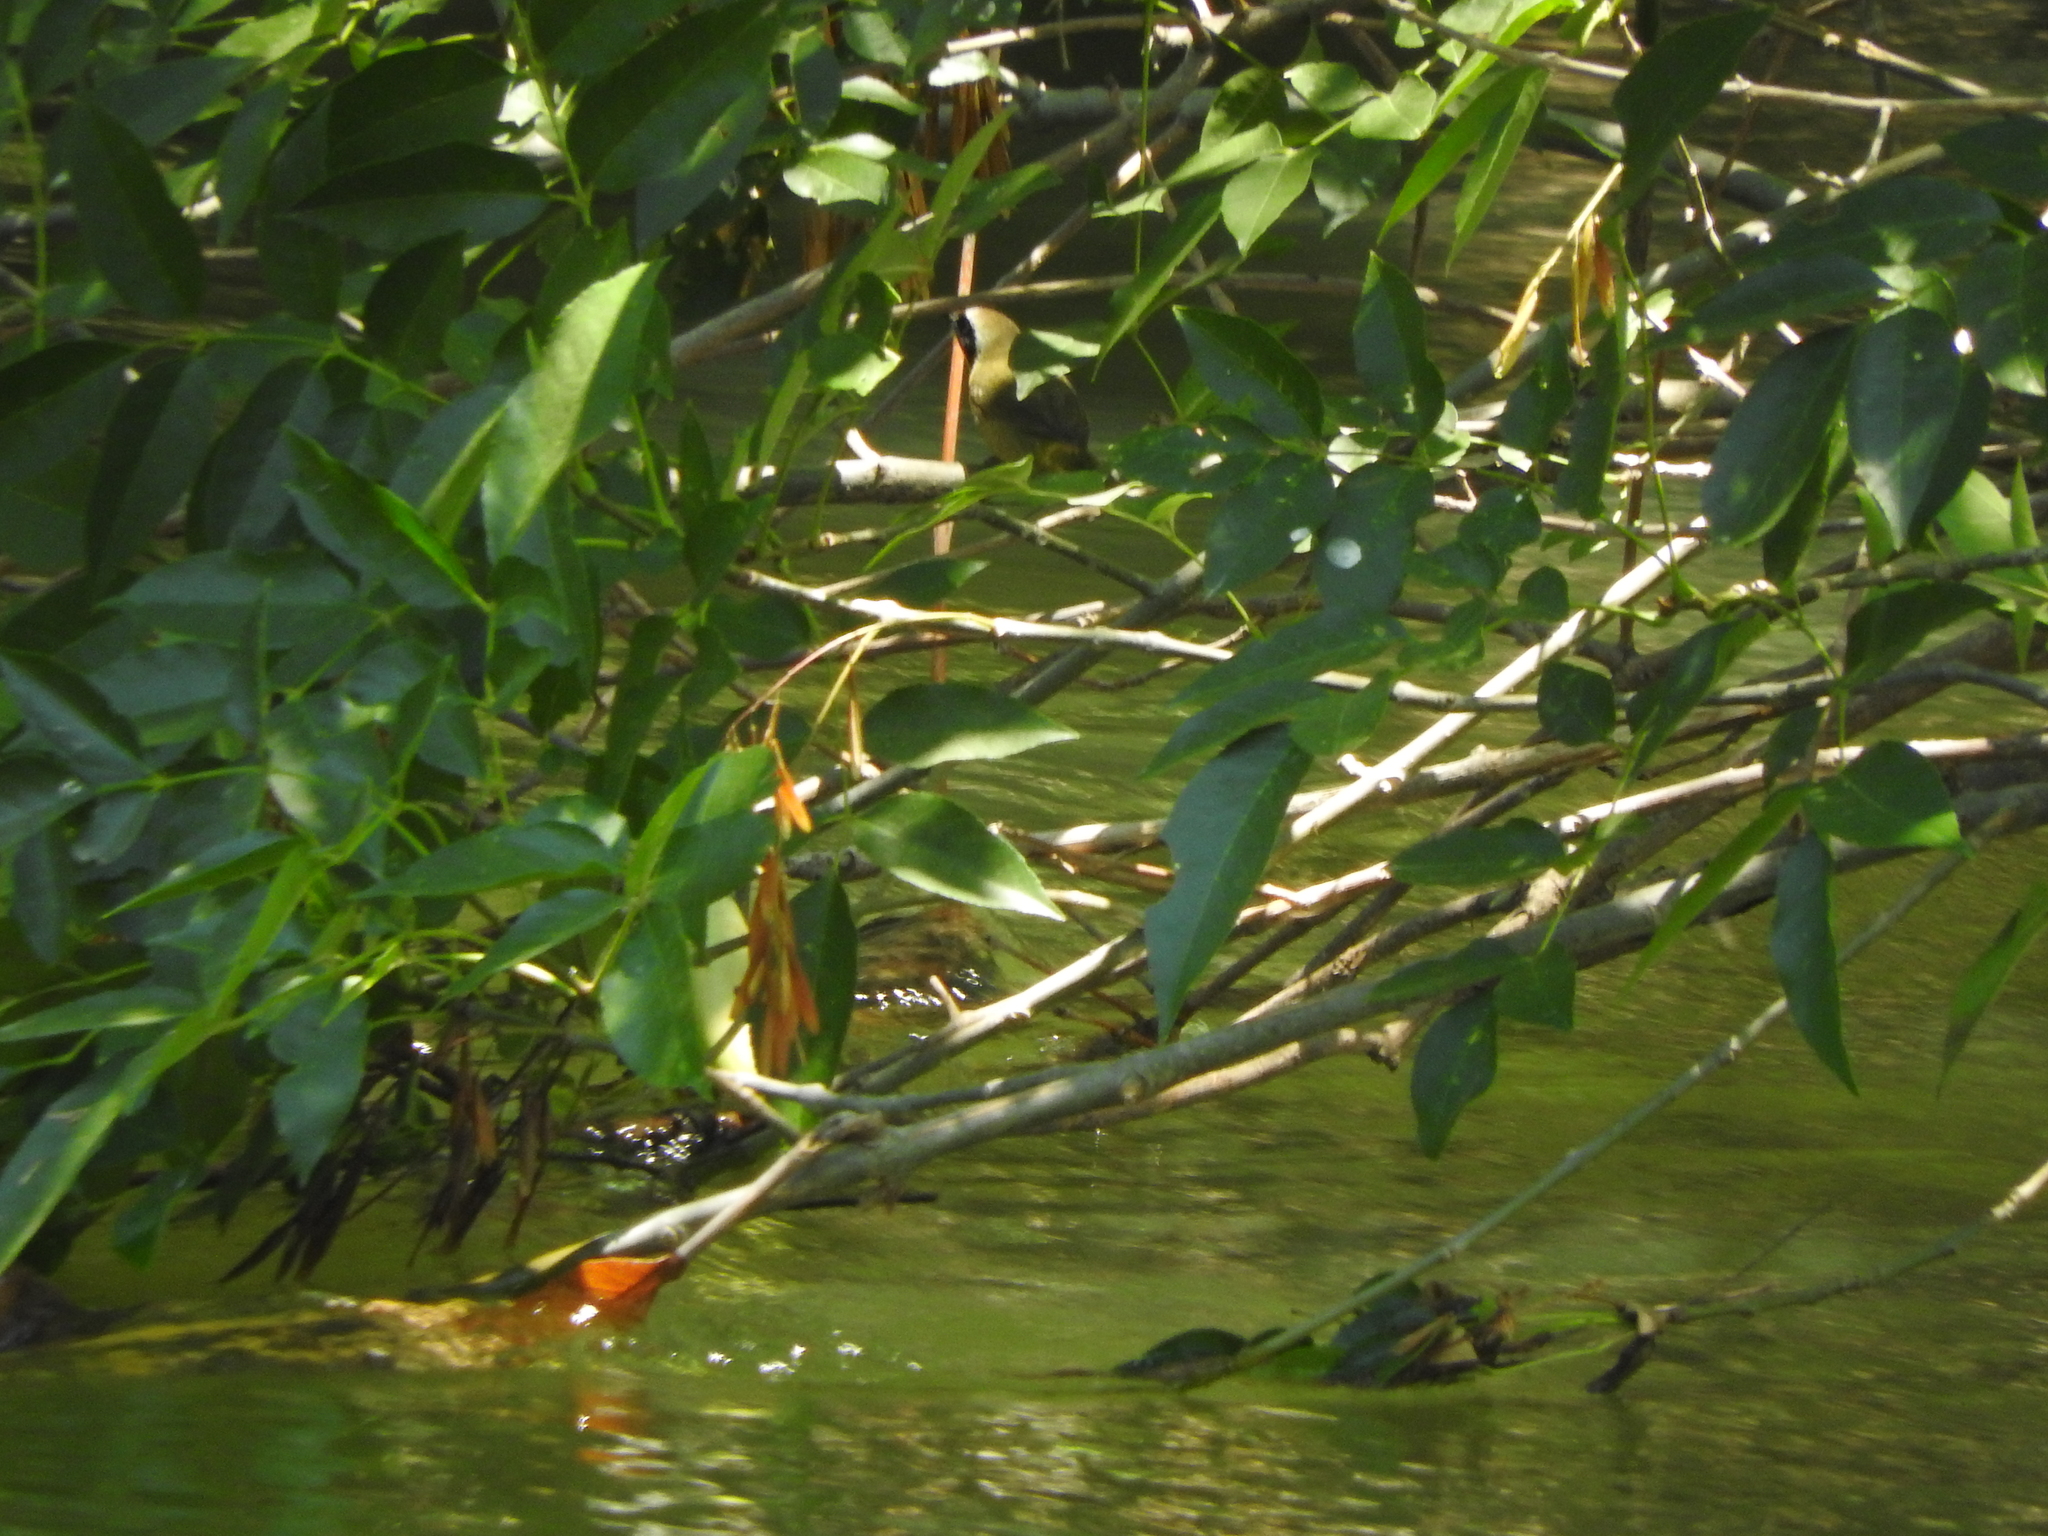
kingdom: Animalia
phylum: Chordata
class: Aves
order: Passeriformes
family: Parulidae
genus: Geothlypis
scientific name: Geothlypis trichas
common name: Common yellowthroat
